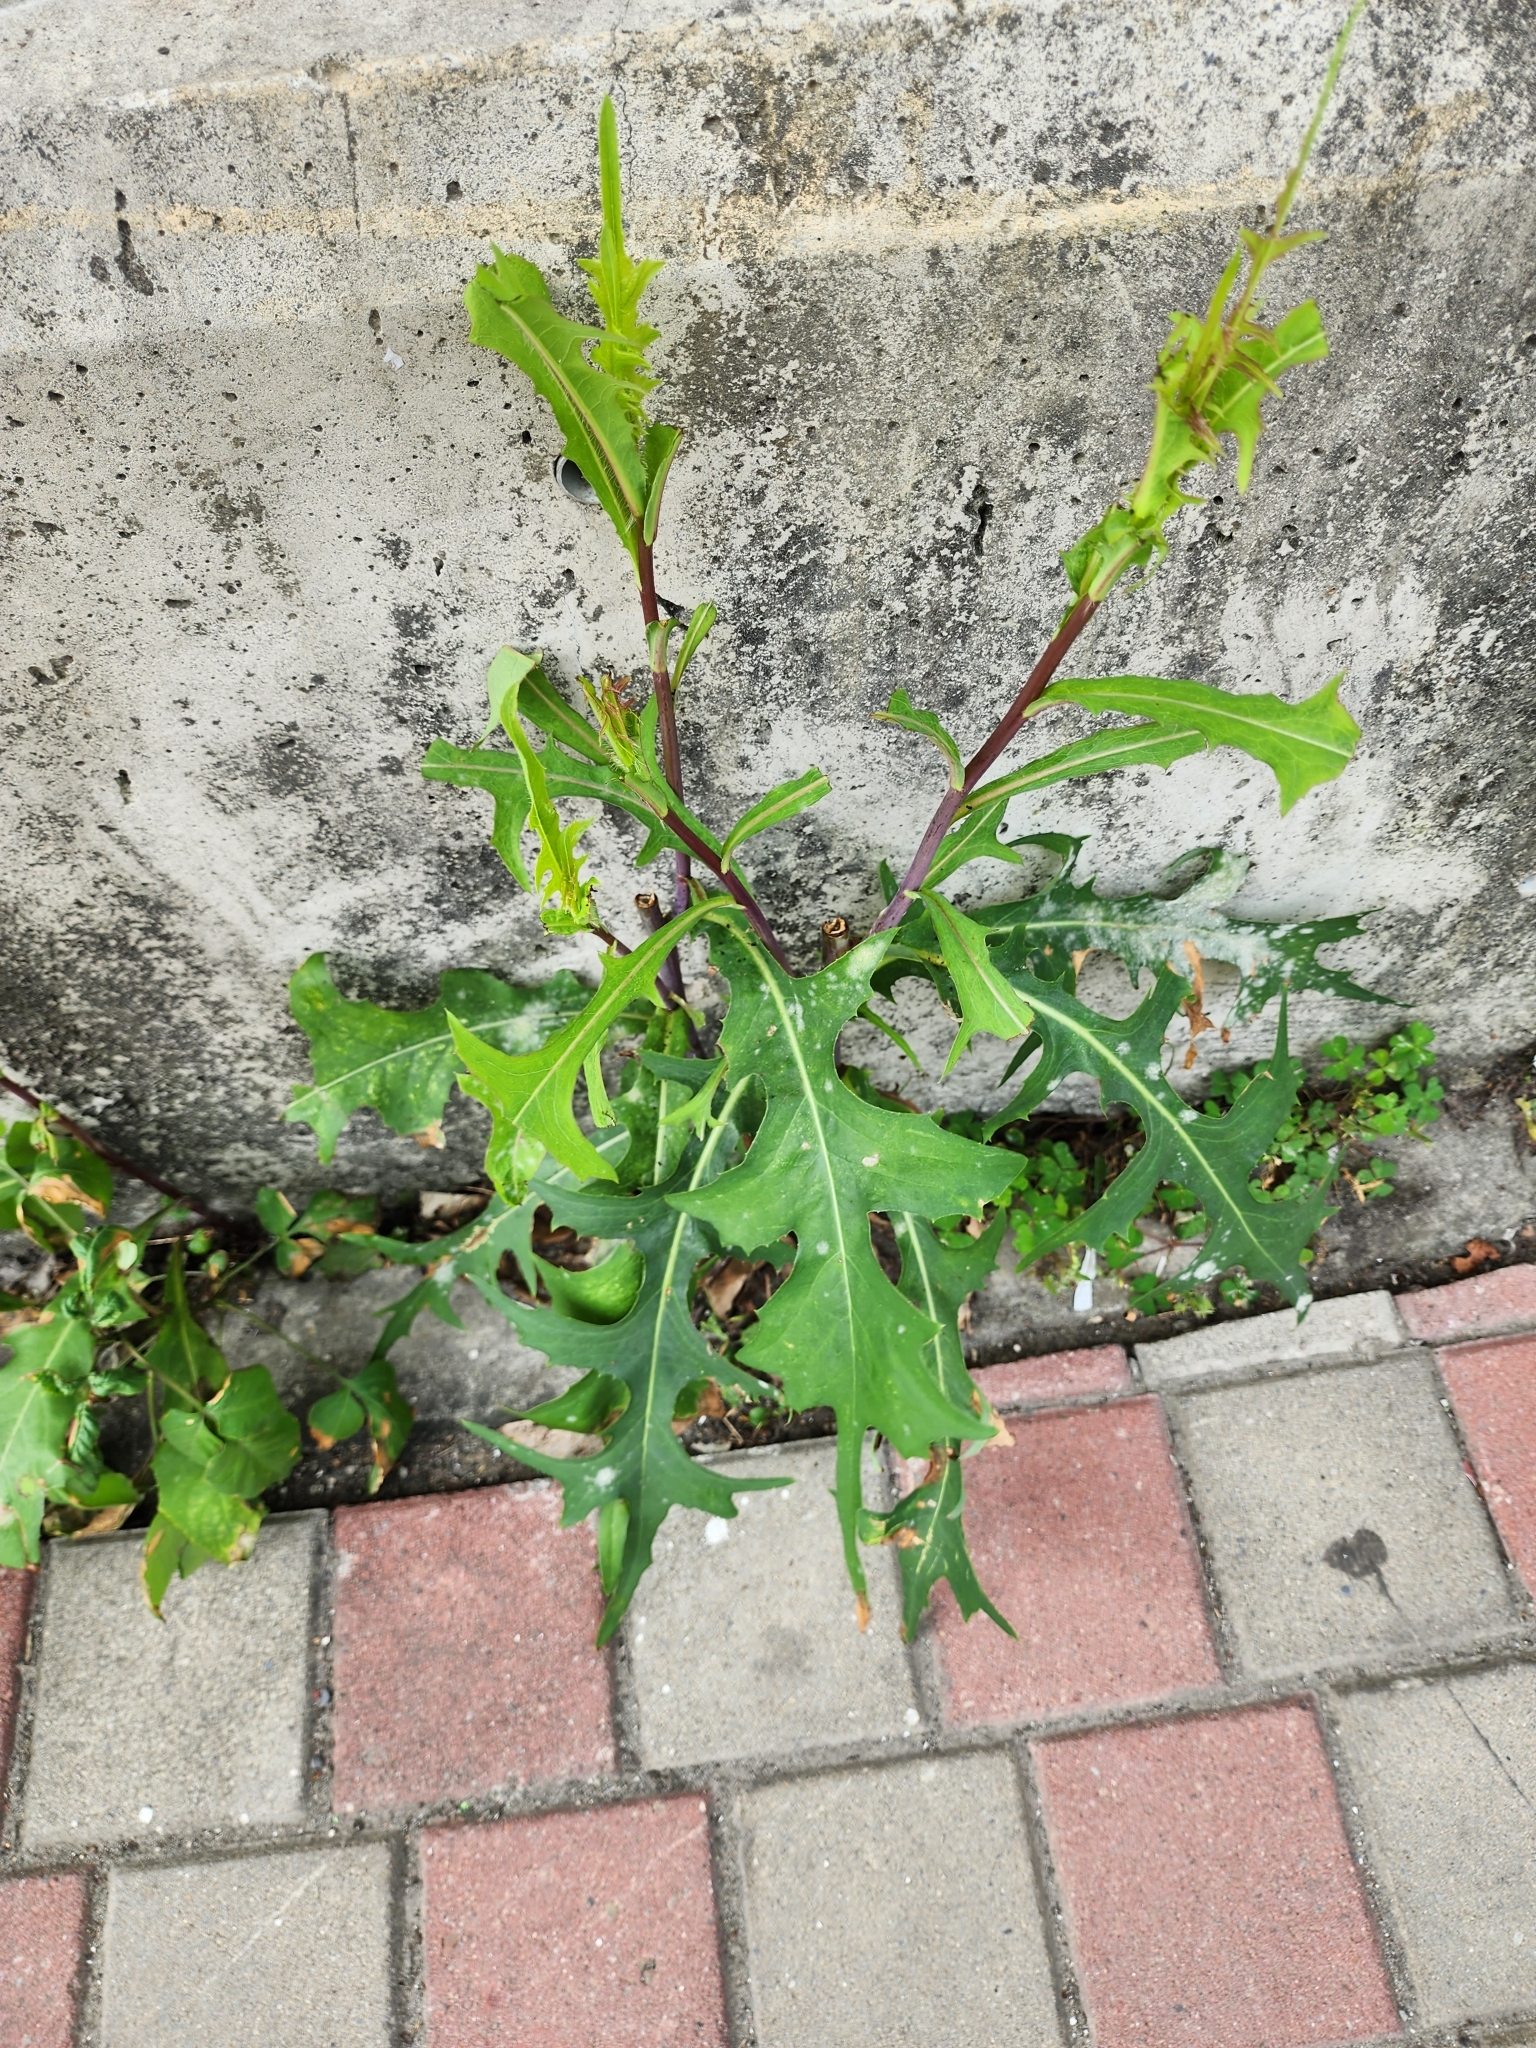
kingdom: Plantae
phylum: Tracheophyta
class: Magnoliopsida
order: Asterales
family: Asteraceae
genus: Lactuca
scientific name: Lactuca indica
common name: Wild lettuce
